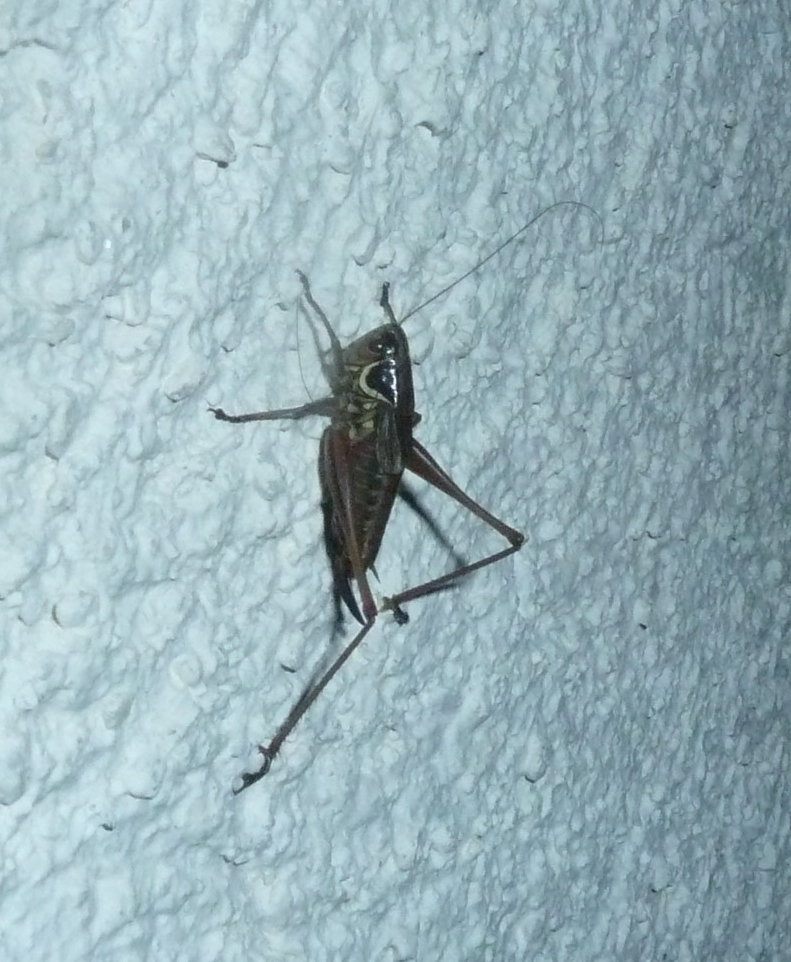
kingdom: Animalia
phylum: Arthropoda
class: Insecta
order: Orthoptera
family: Tettigoniidae
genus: Roeseliana
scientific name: Roeseliana roeselii
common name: Roesel's bush cricket
